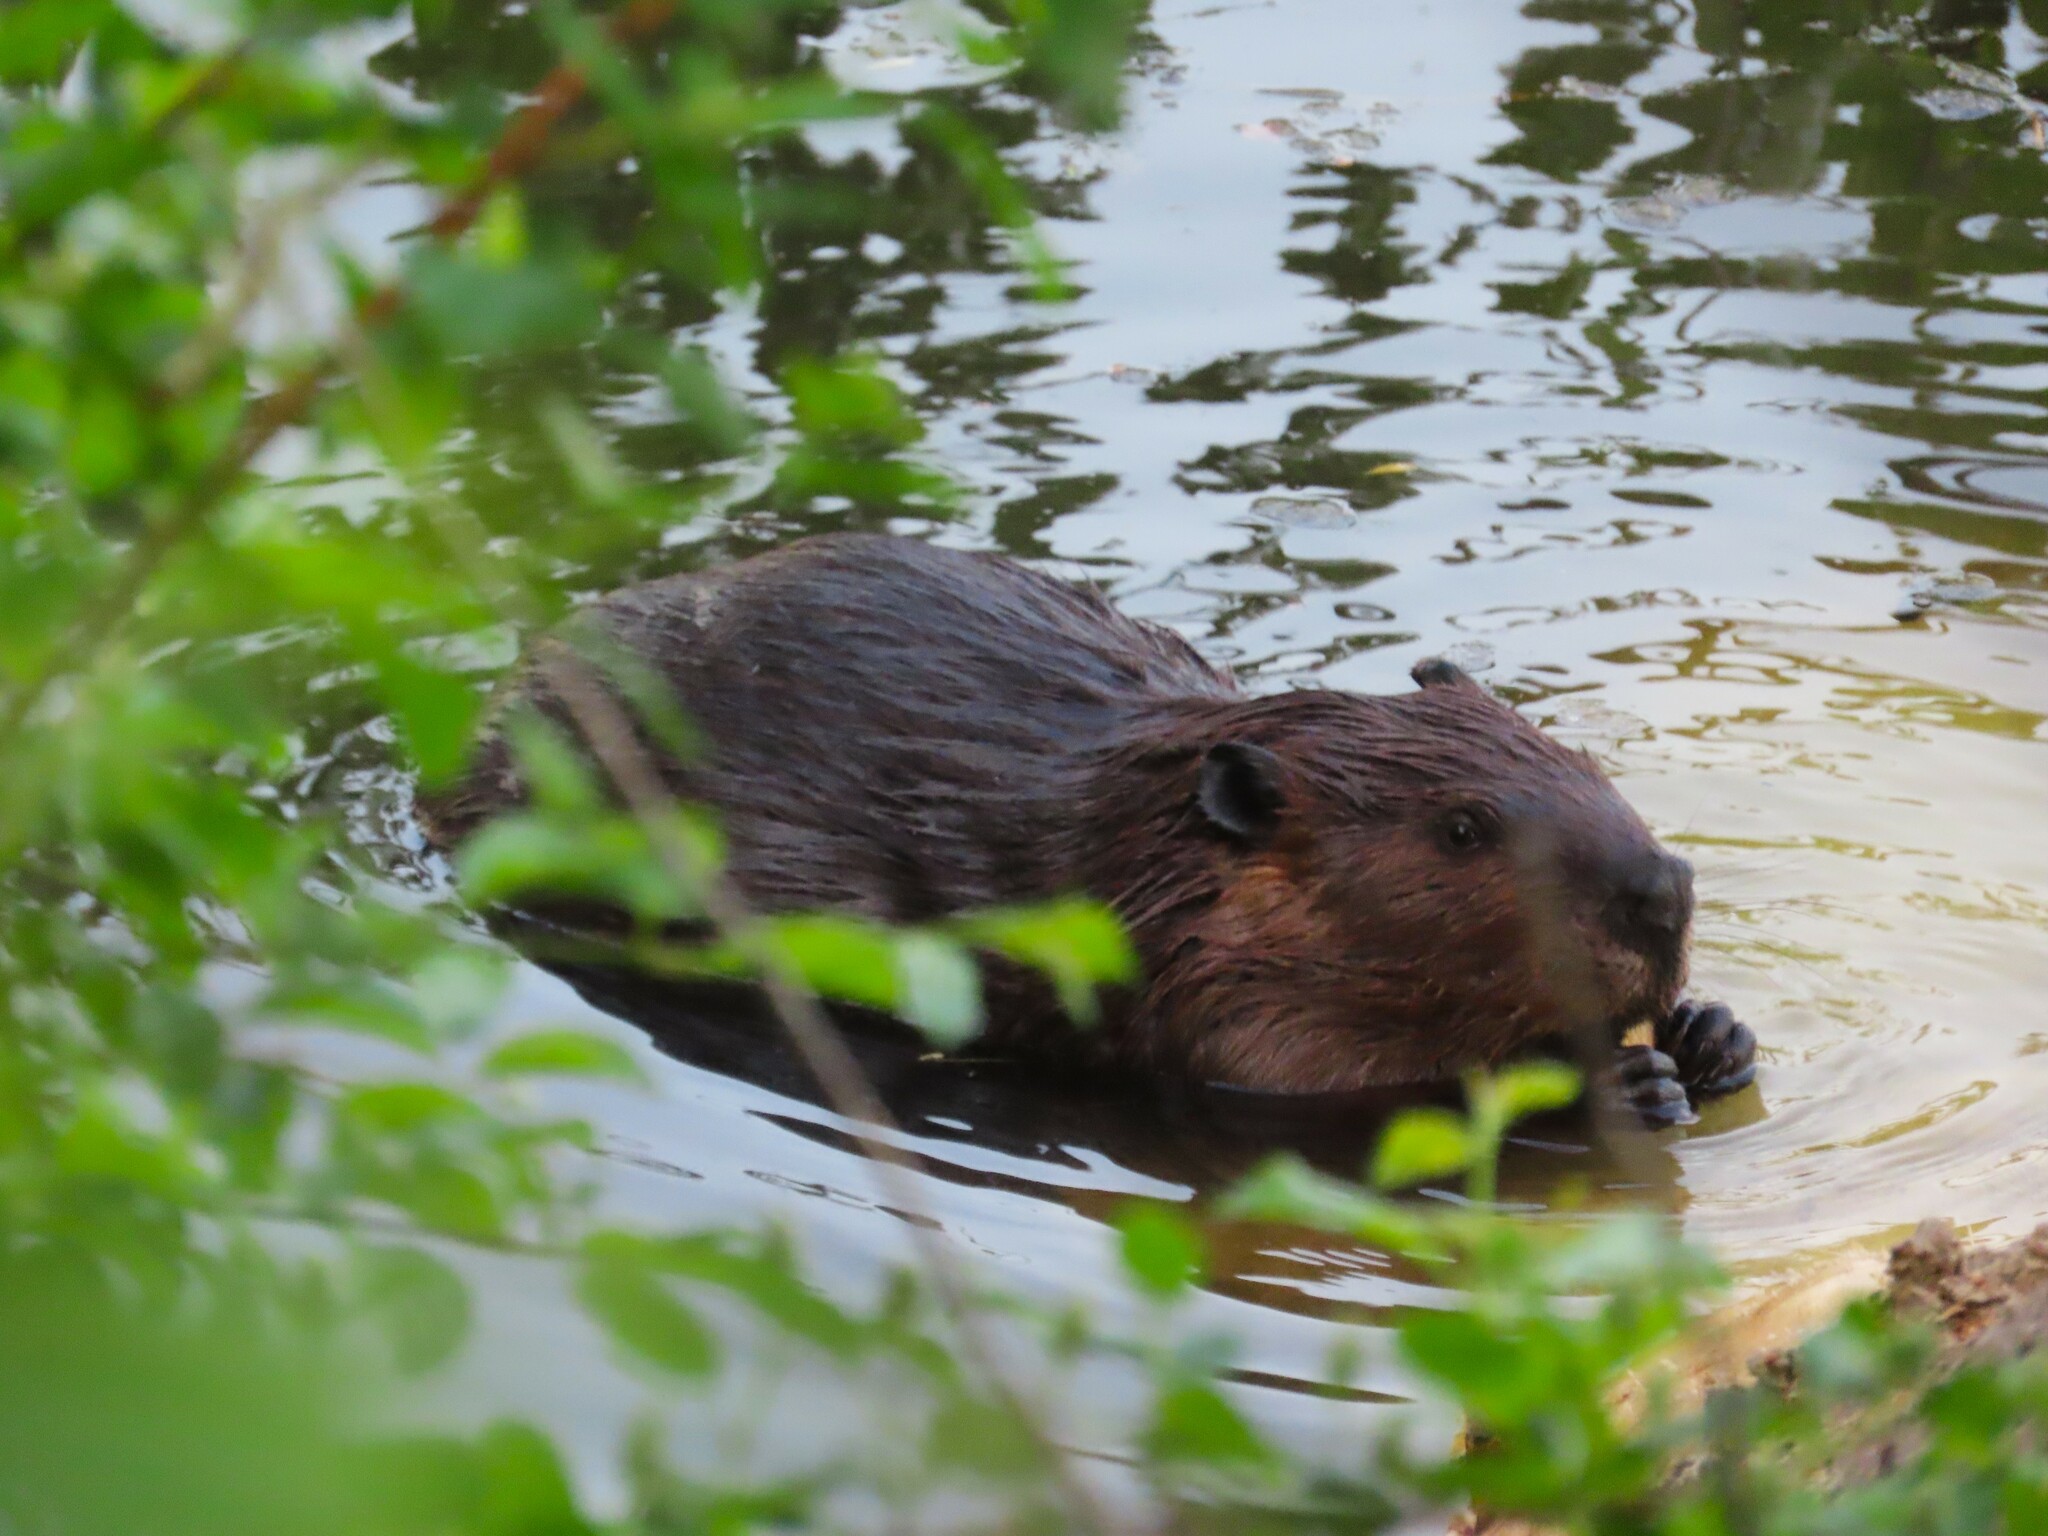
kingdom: Animalia
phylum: Chordata
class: Mammalia
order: Rodentia
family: Castoridae
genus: Castor
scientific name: Castor canadensis
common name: American beaver
